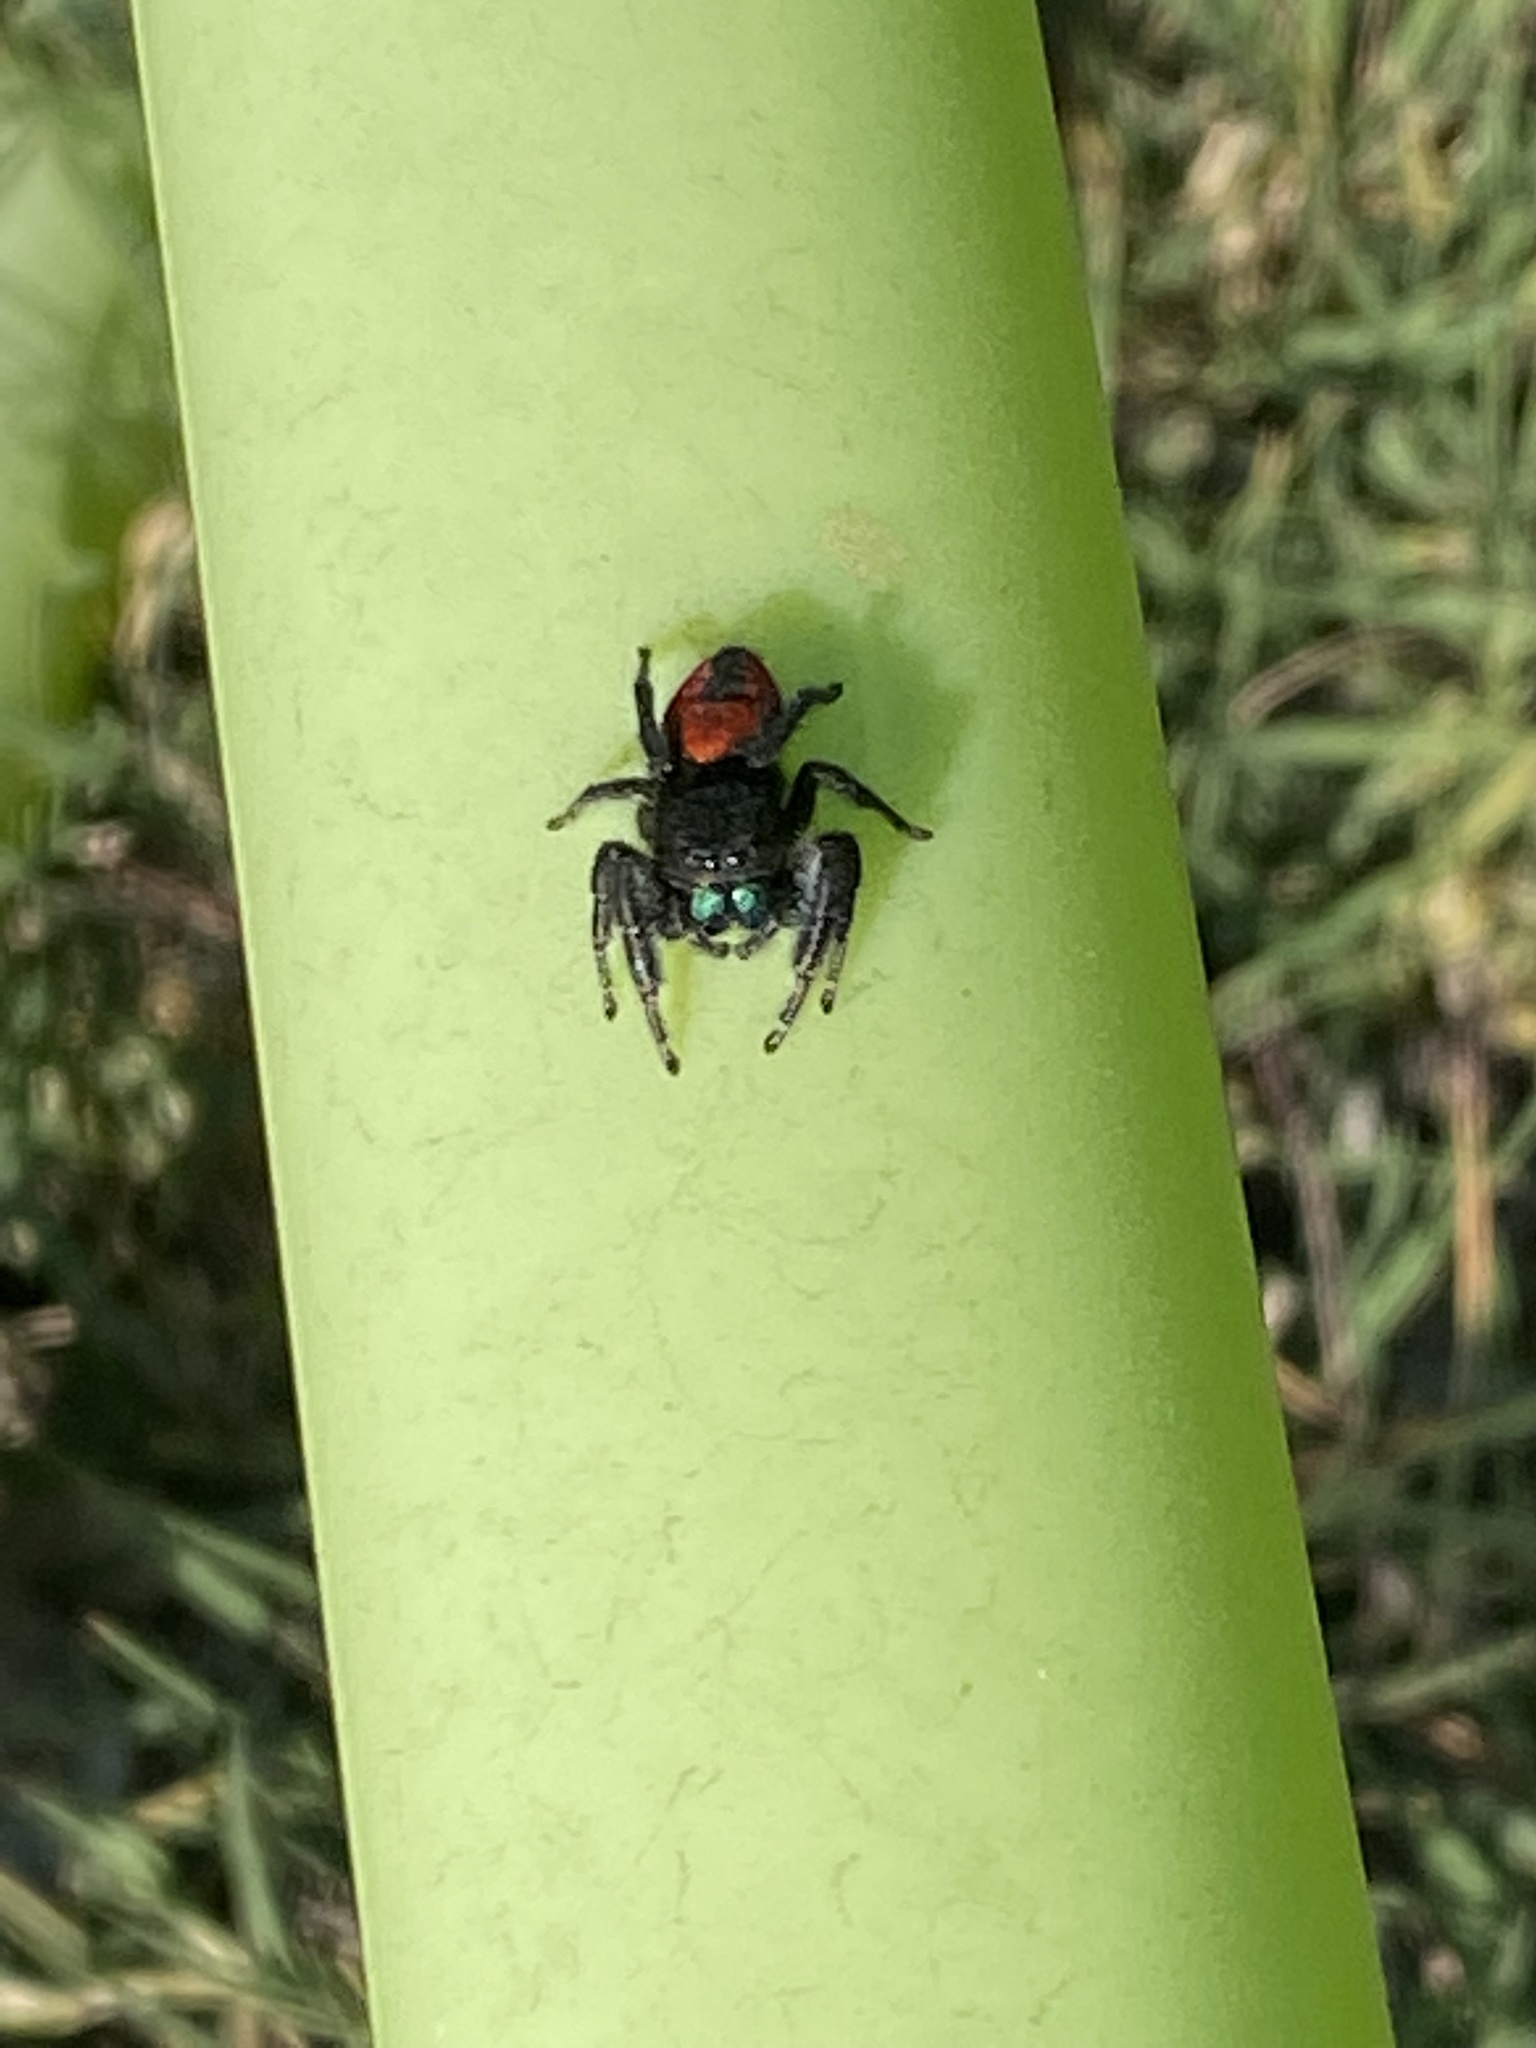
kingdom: Animalia
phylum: Arthropoda
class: Arachnida
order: Araneae
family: Salticidae
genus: Phidippus
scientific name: Phidippus johnsoni
